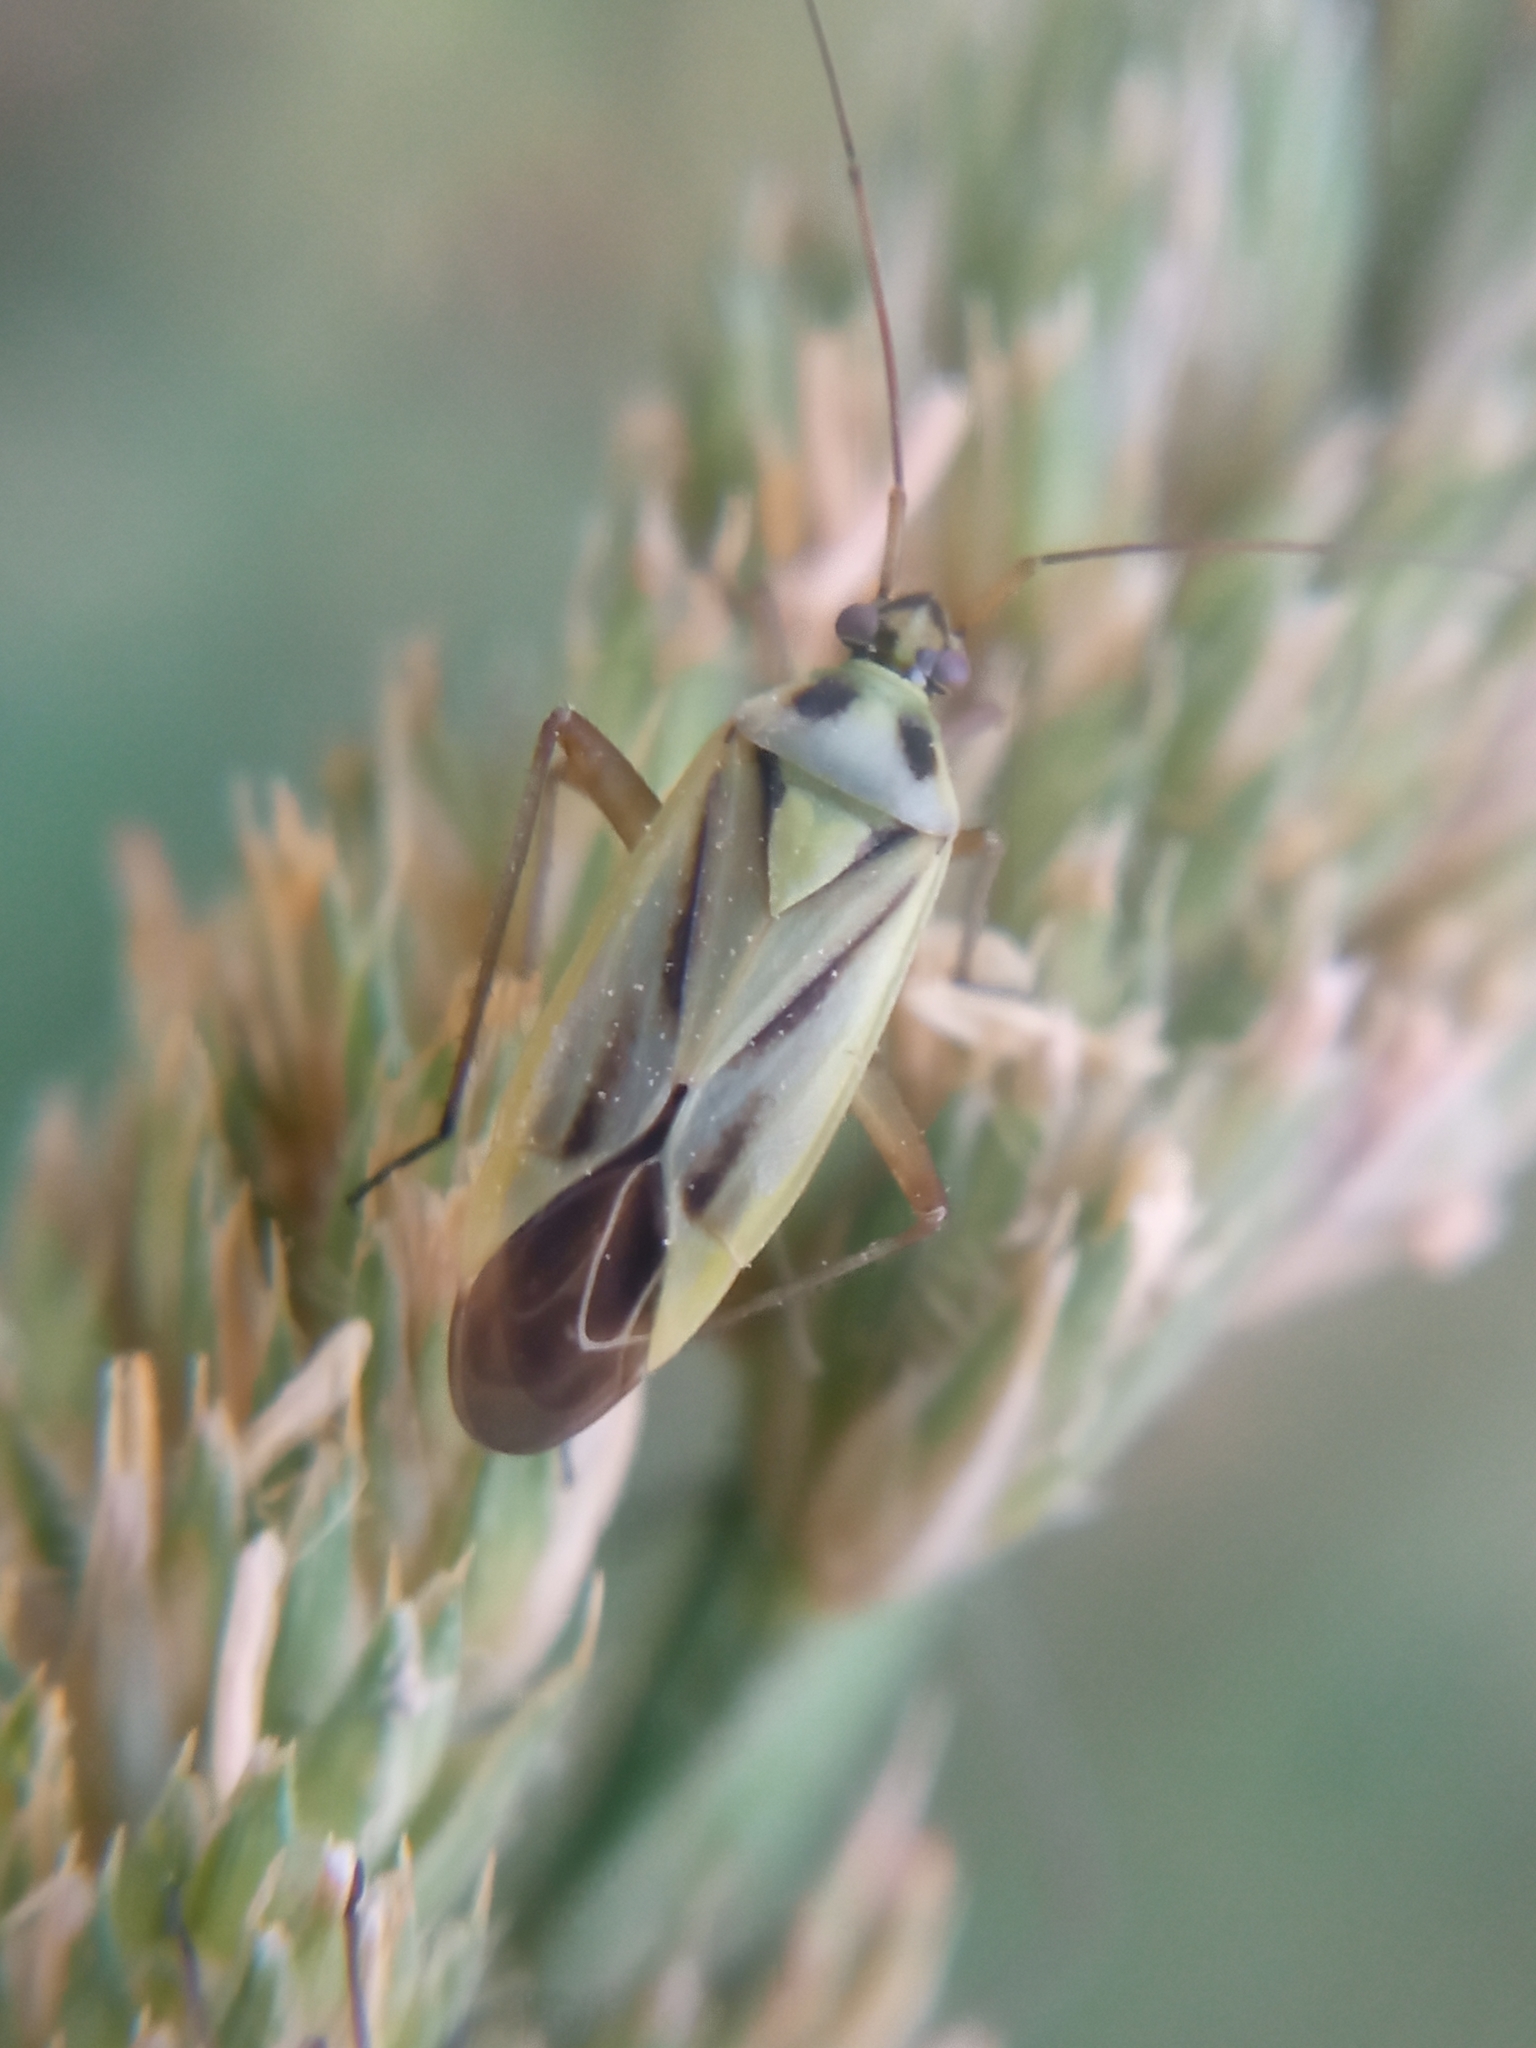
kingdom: Animalia
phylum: Arthropoda
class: Insecta
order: Hemiptera
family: Miridae
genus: Stenotus
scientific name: Stenotus binotatus
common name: Plant bug
